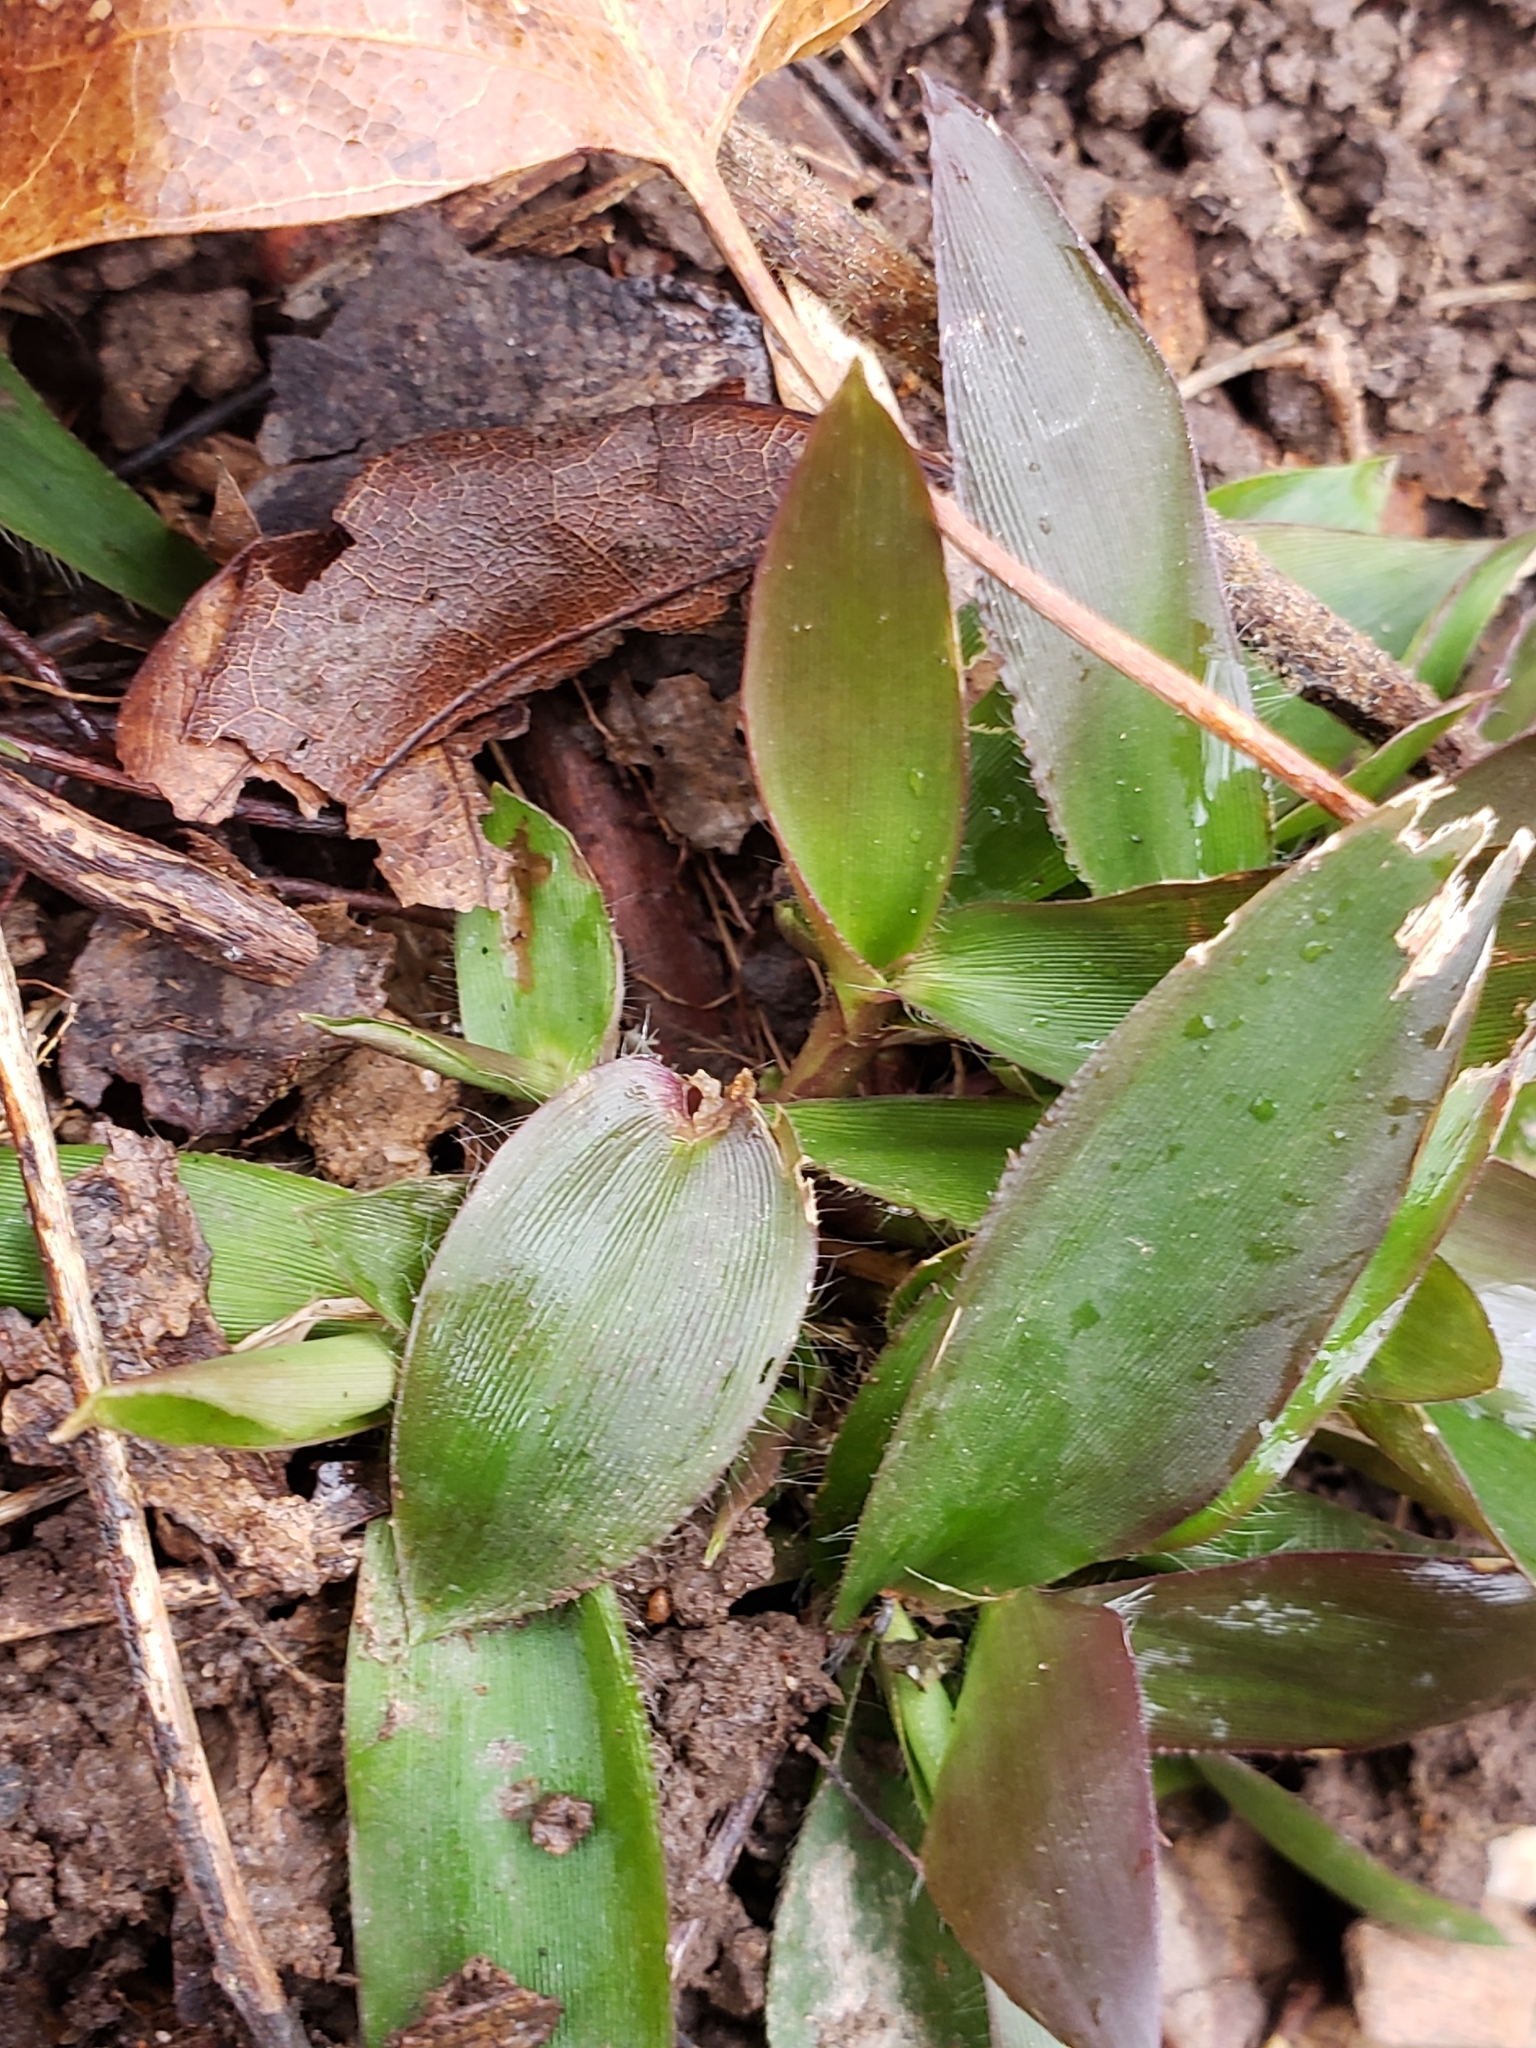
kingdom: Plantae
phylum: Tracheophyta
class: Liliopsida
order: Poales
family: Poaceae
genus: Dichanthelium
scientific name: Dichanthelium clandestinum
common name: Deer-tongue grass
